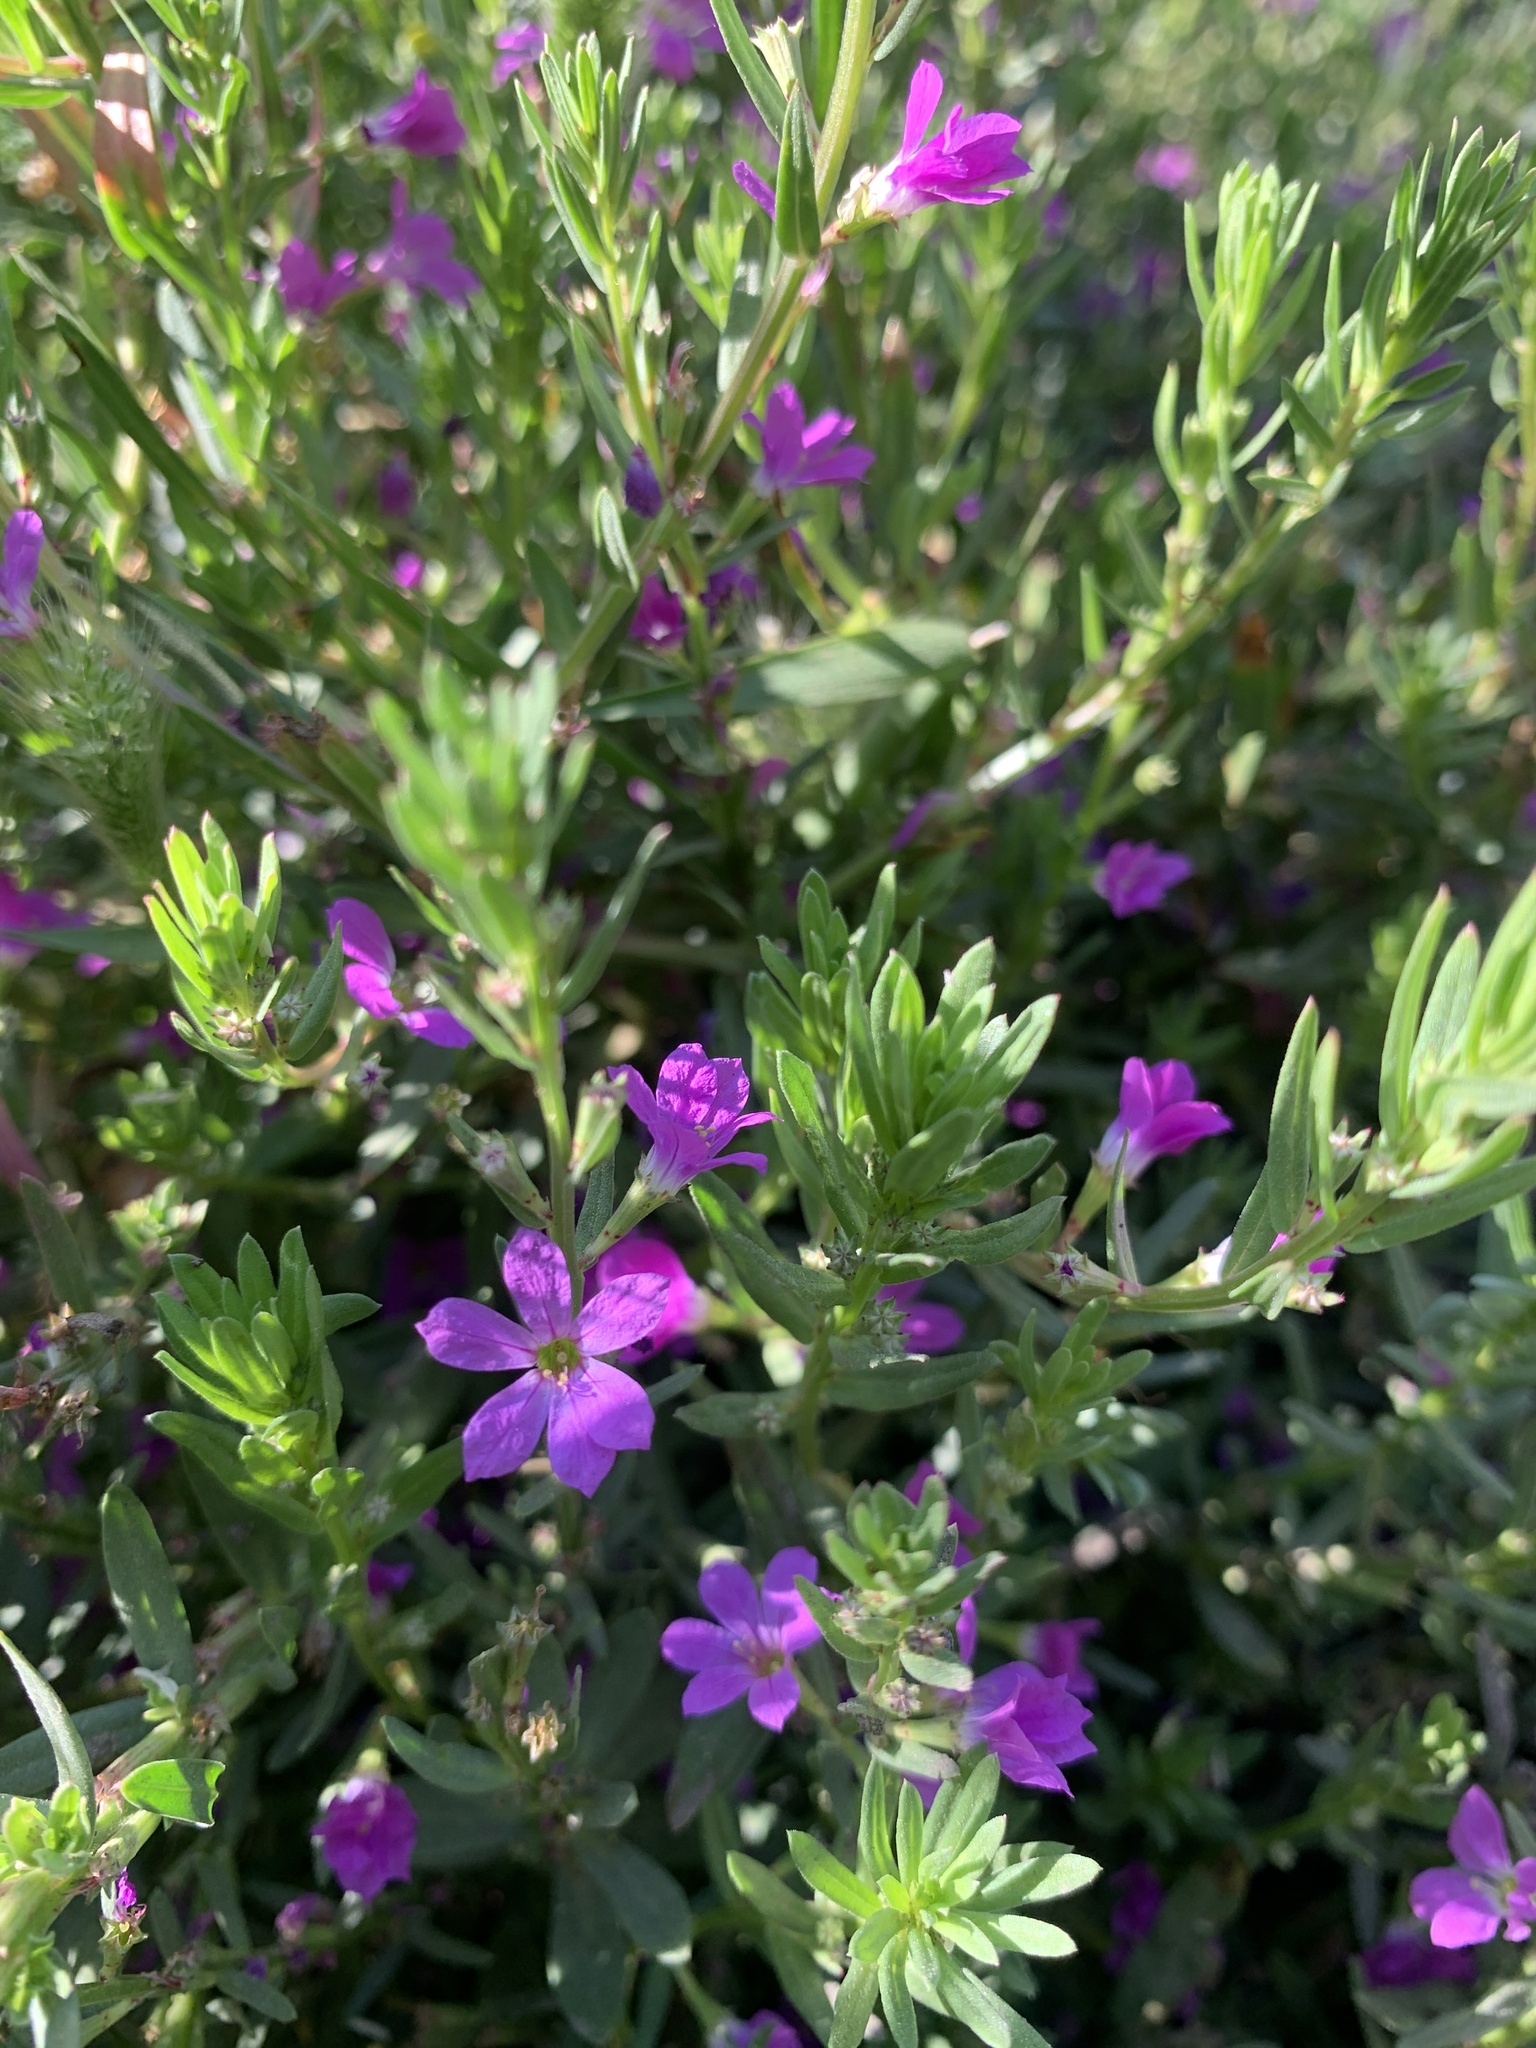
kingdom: Plantae
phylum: Tracheophyta
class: Magnoliopsida
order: Myrtales
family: Lythraceae
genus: Lythrum
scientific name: Lythrum junceum
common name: False grass-poly
